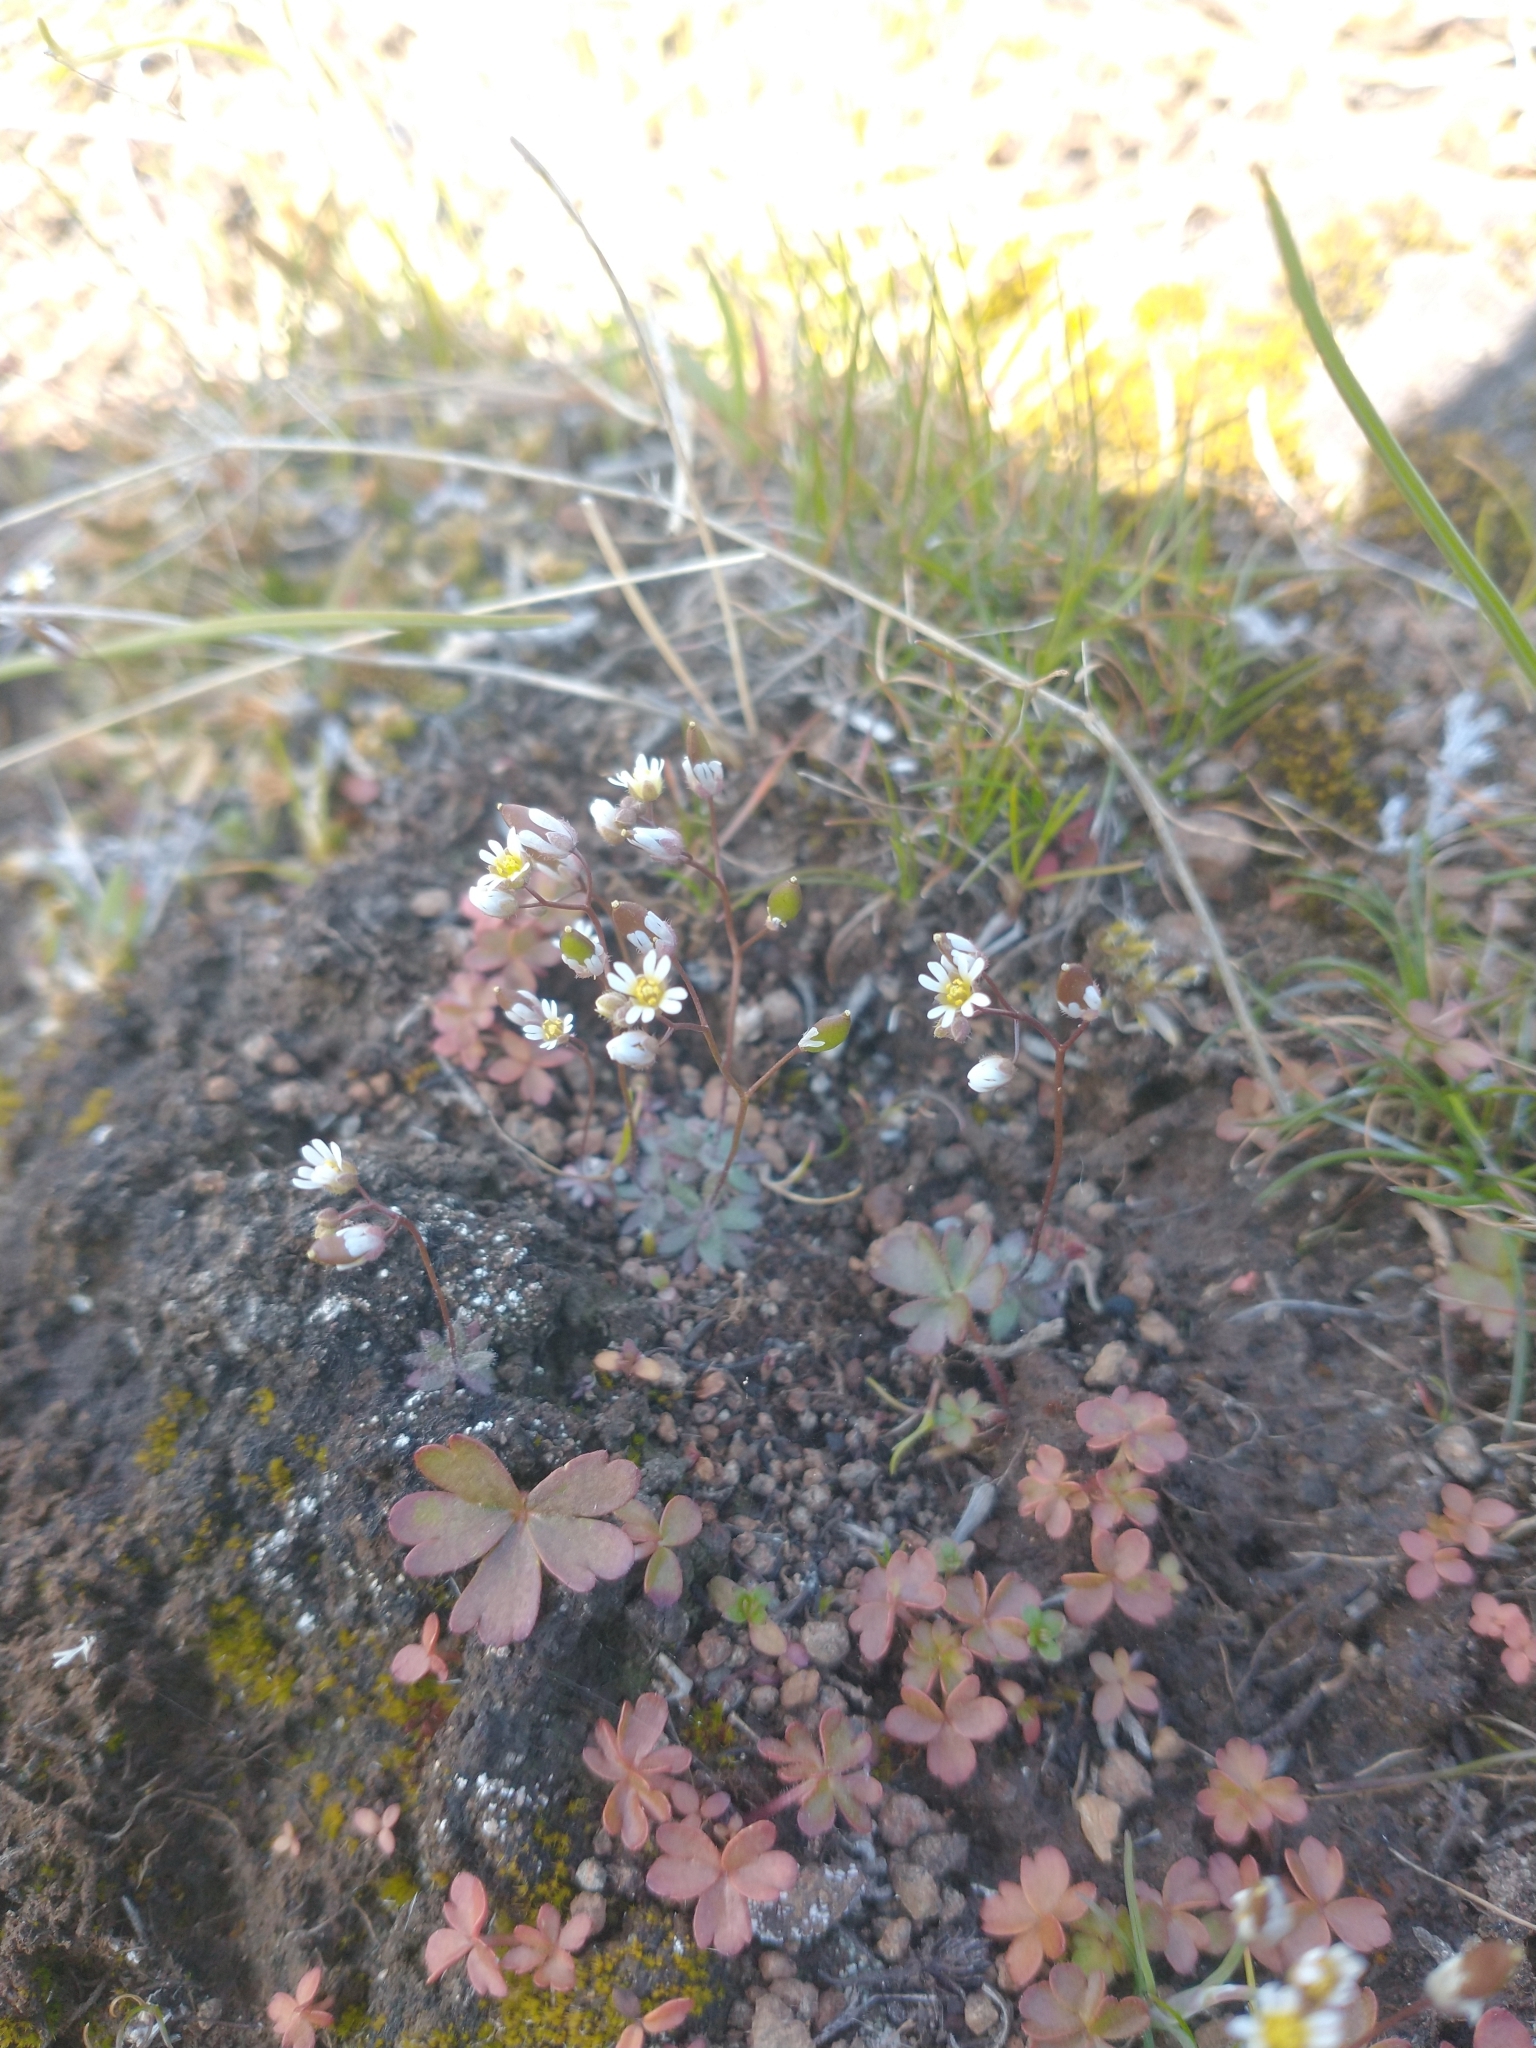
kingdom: Plantae
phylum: Tracheophyta
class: Magnoliopsida
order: Brassicales
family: Brassicaceae
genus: Draba
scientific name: Draba verna
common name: Spring draba
